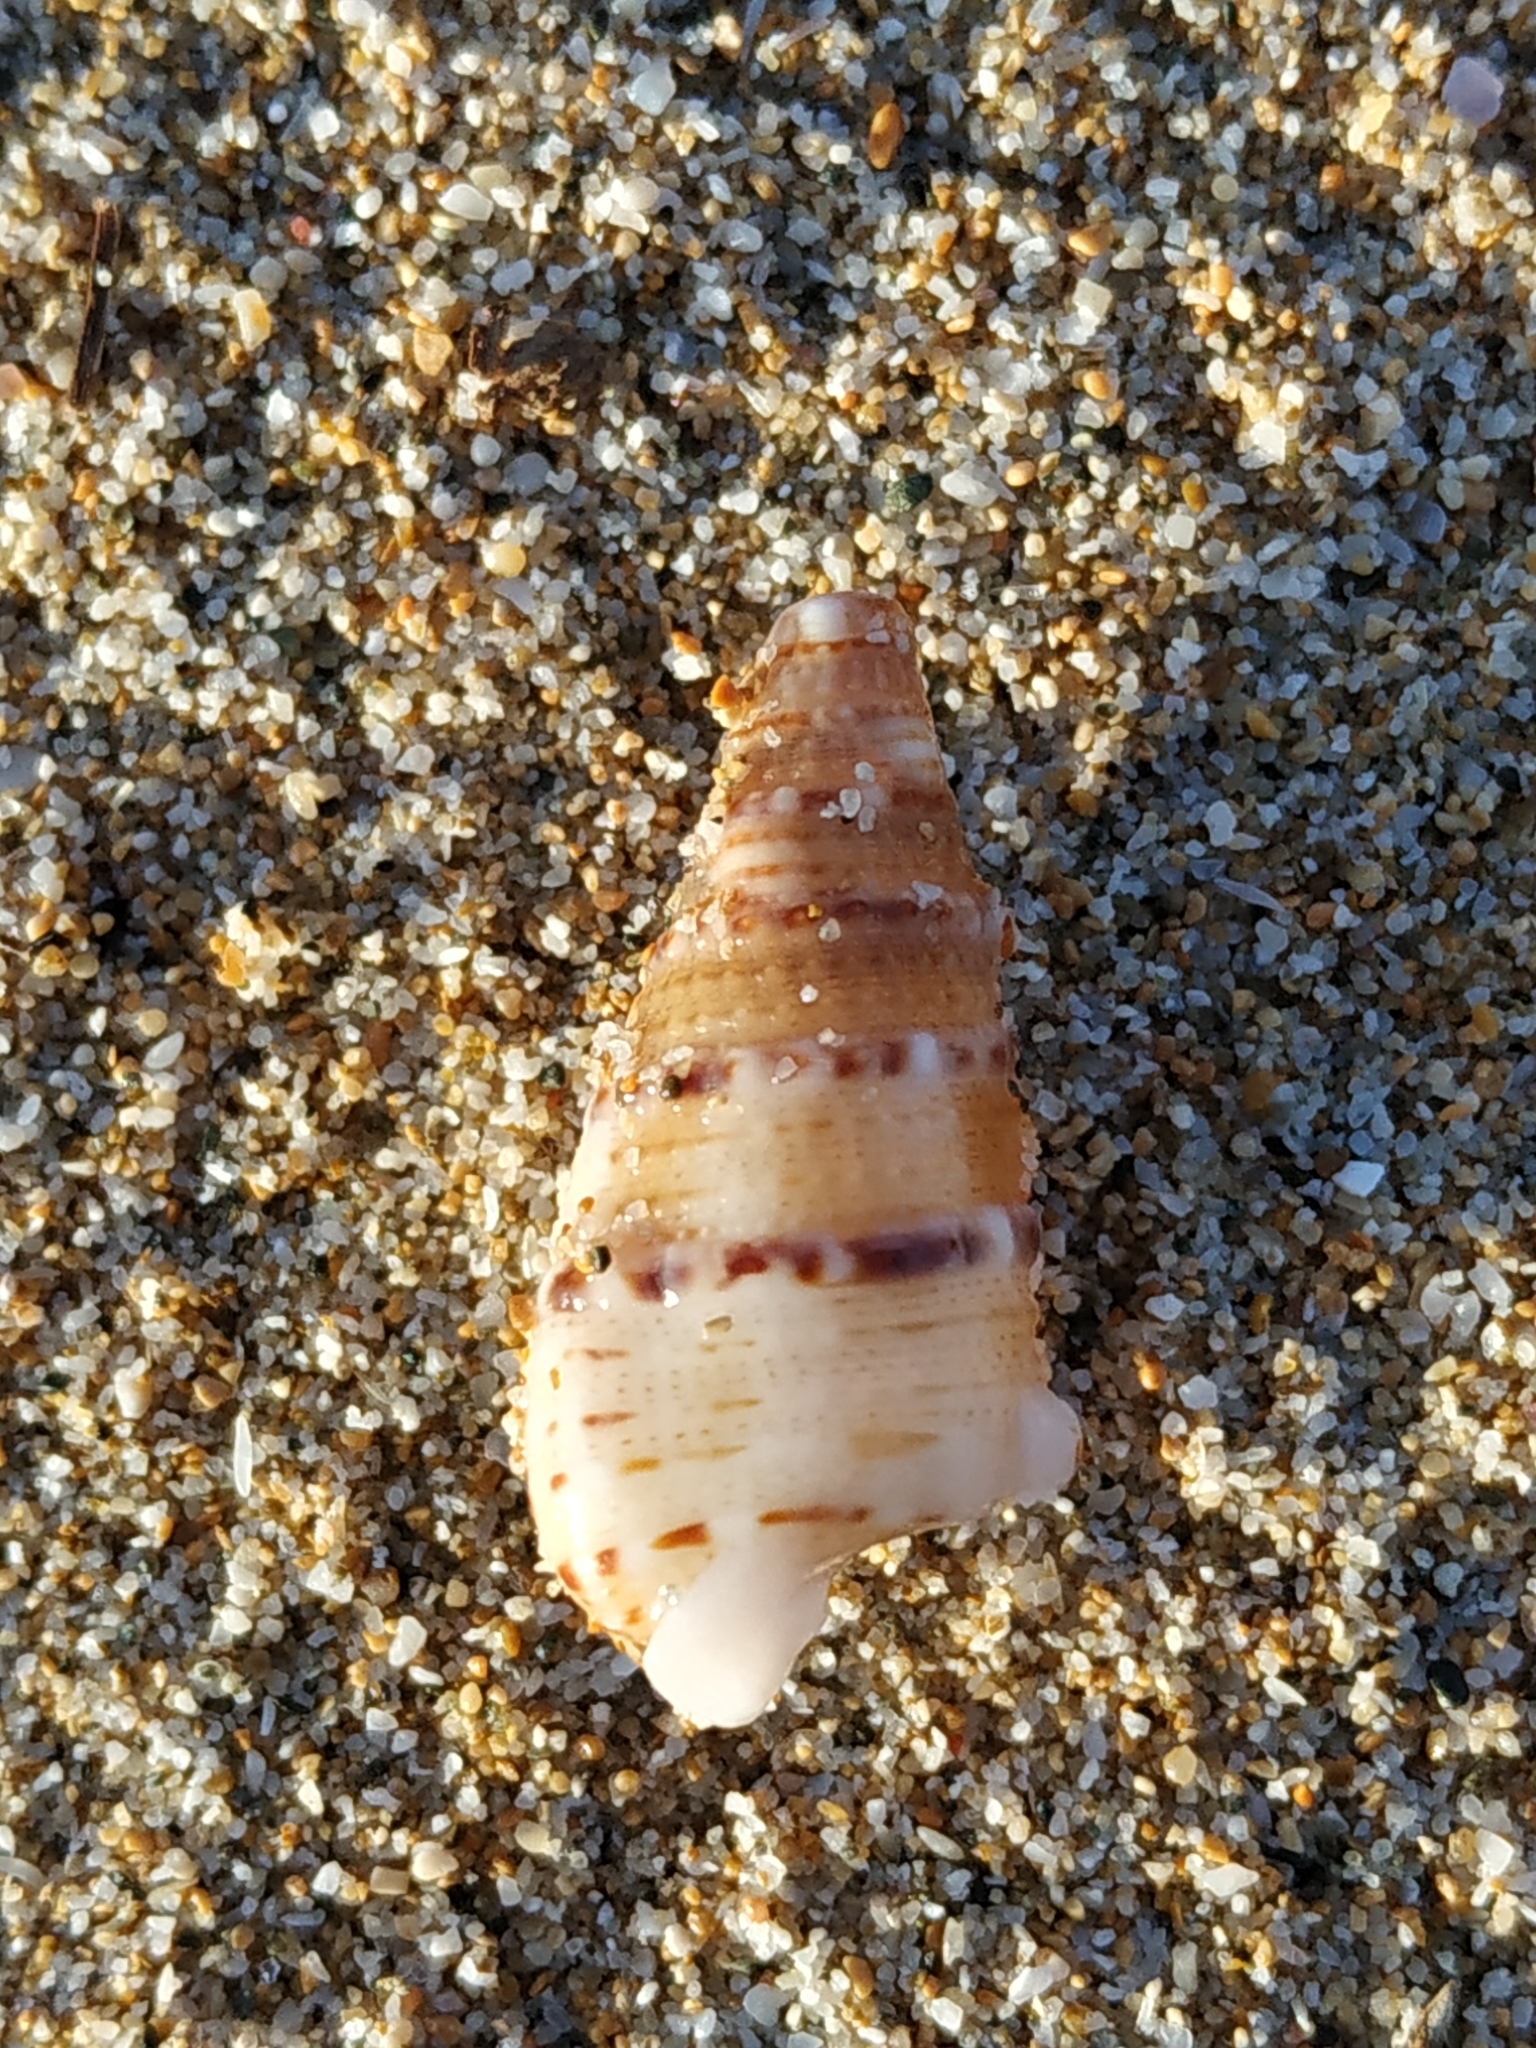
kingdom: Animalia
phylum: Mollusca
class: Gastropoda
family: Cerithiidae
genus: Rhinoclavis
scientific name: Rhinoclavis sinensis
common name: Knobbled horn shell
